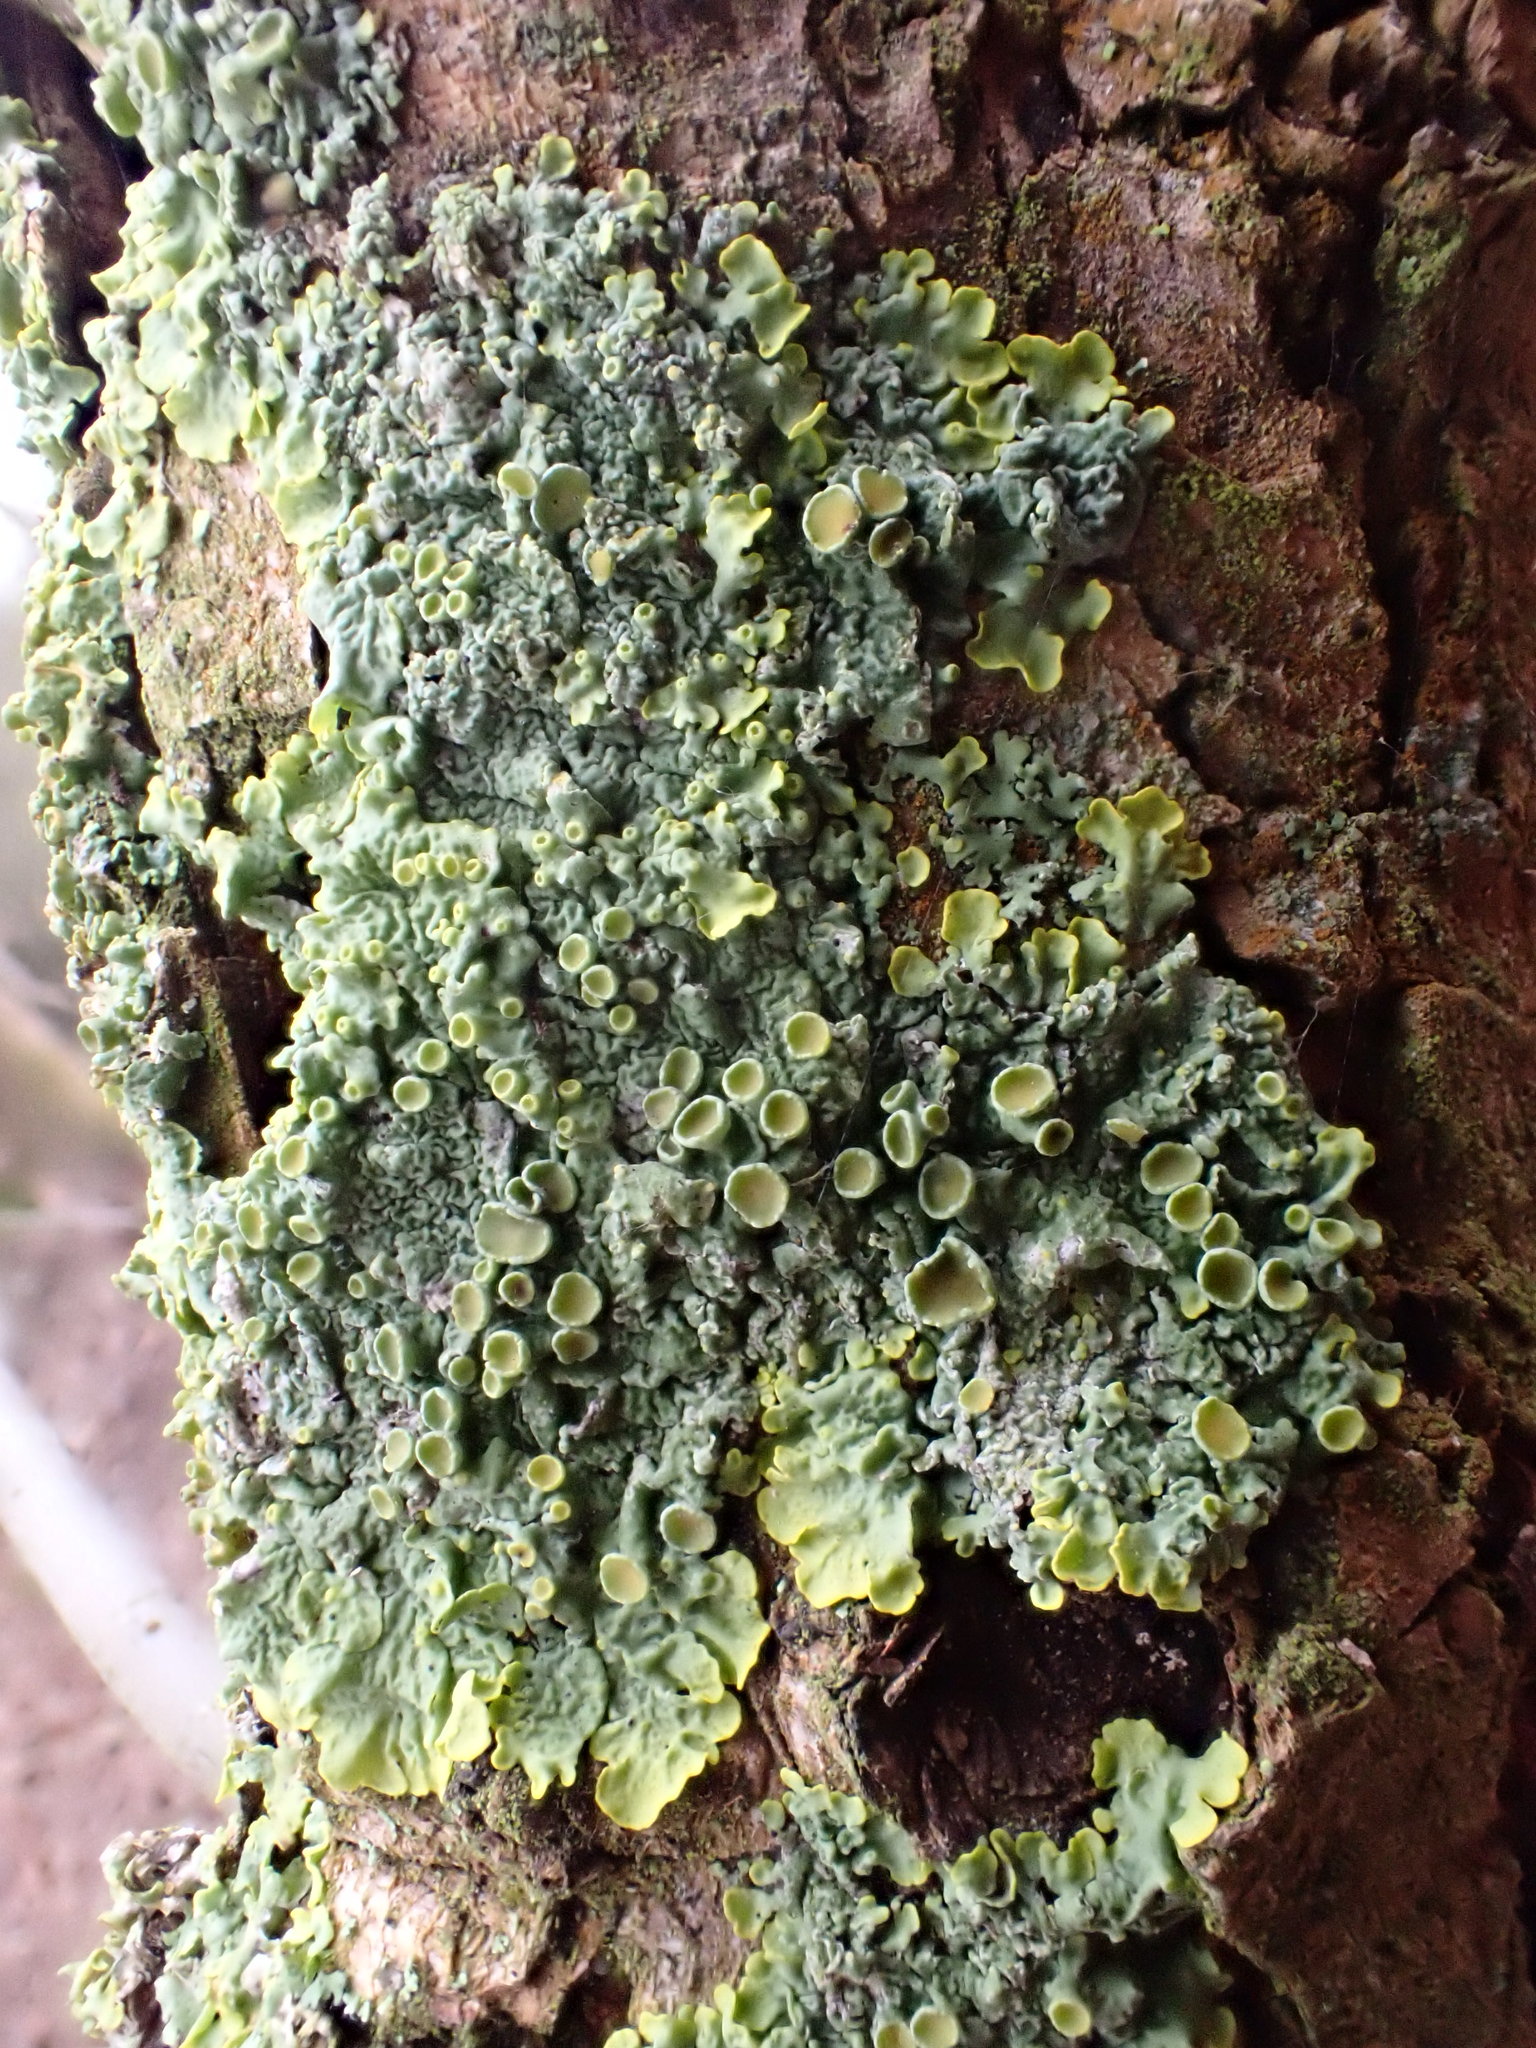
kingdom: Fungi
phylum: Ascomycota
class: Lecanoromycetes
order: Teloschistales
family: Teloschistaceae
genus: Xanthoria
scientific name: Xanthoria parietina
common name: Common orange lichen
